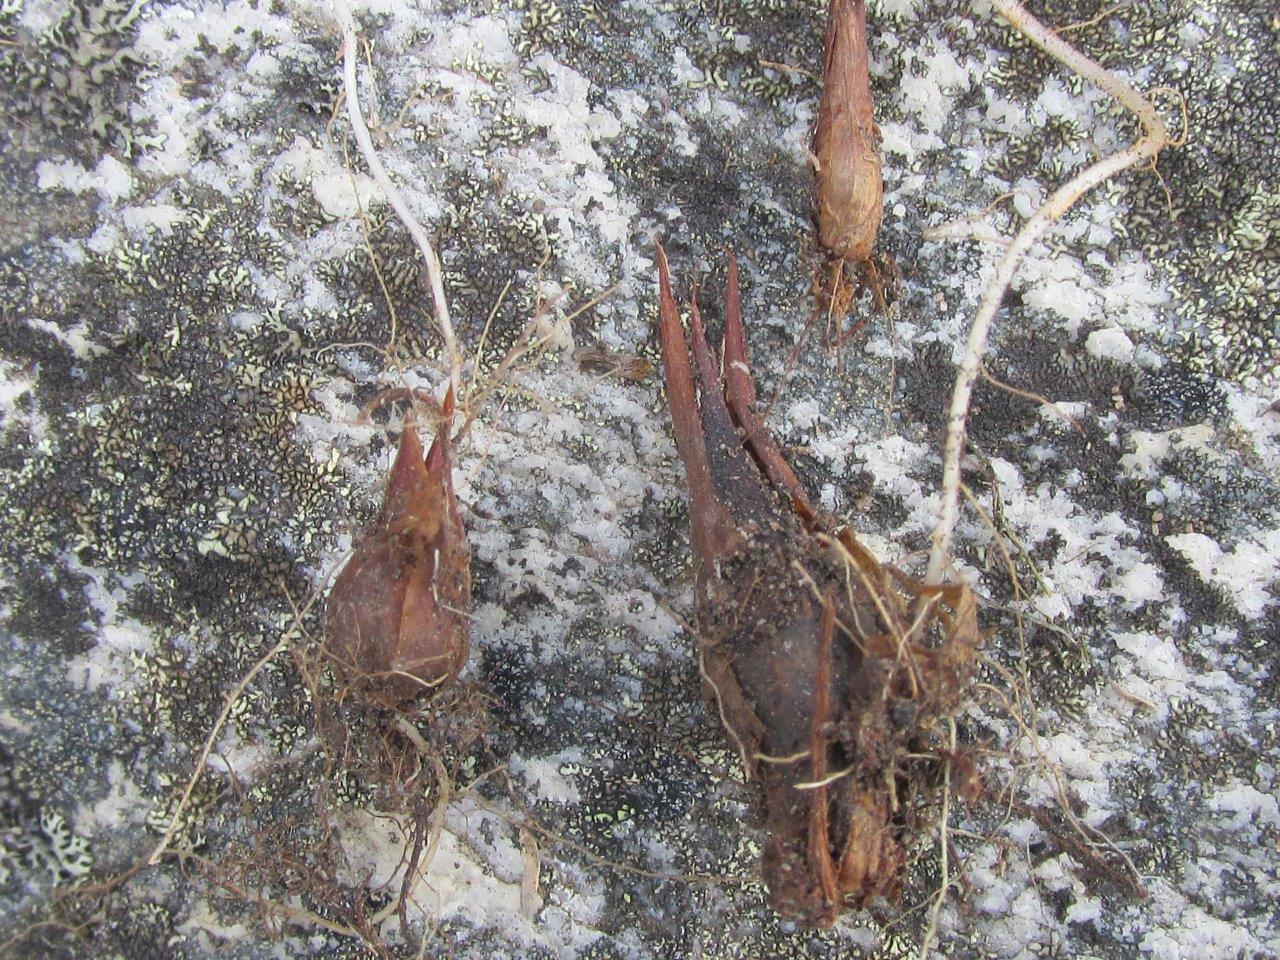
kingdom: Plantae
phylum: Tracheophyta
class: Magnoliopsida
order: Oxalidales
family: Oxalidaceae
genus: Oxalis
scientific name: Oxalis imbricata
